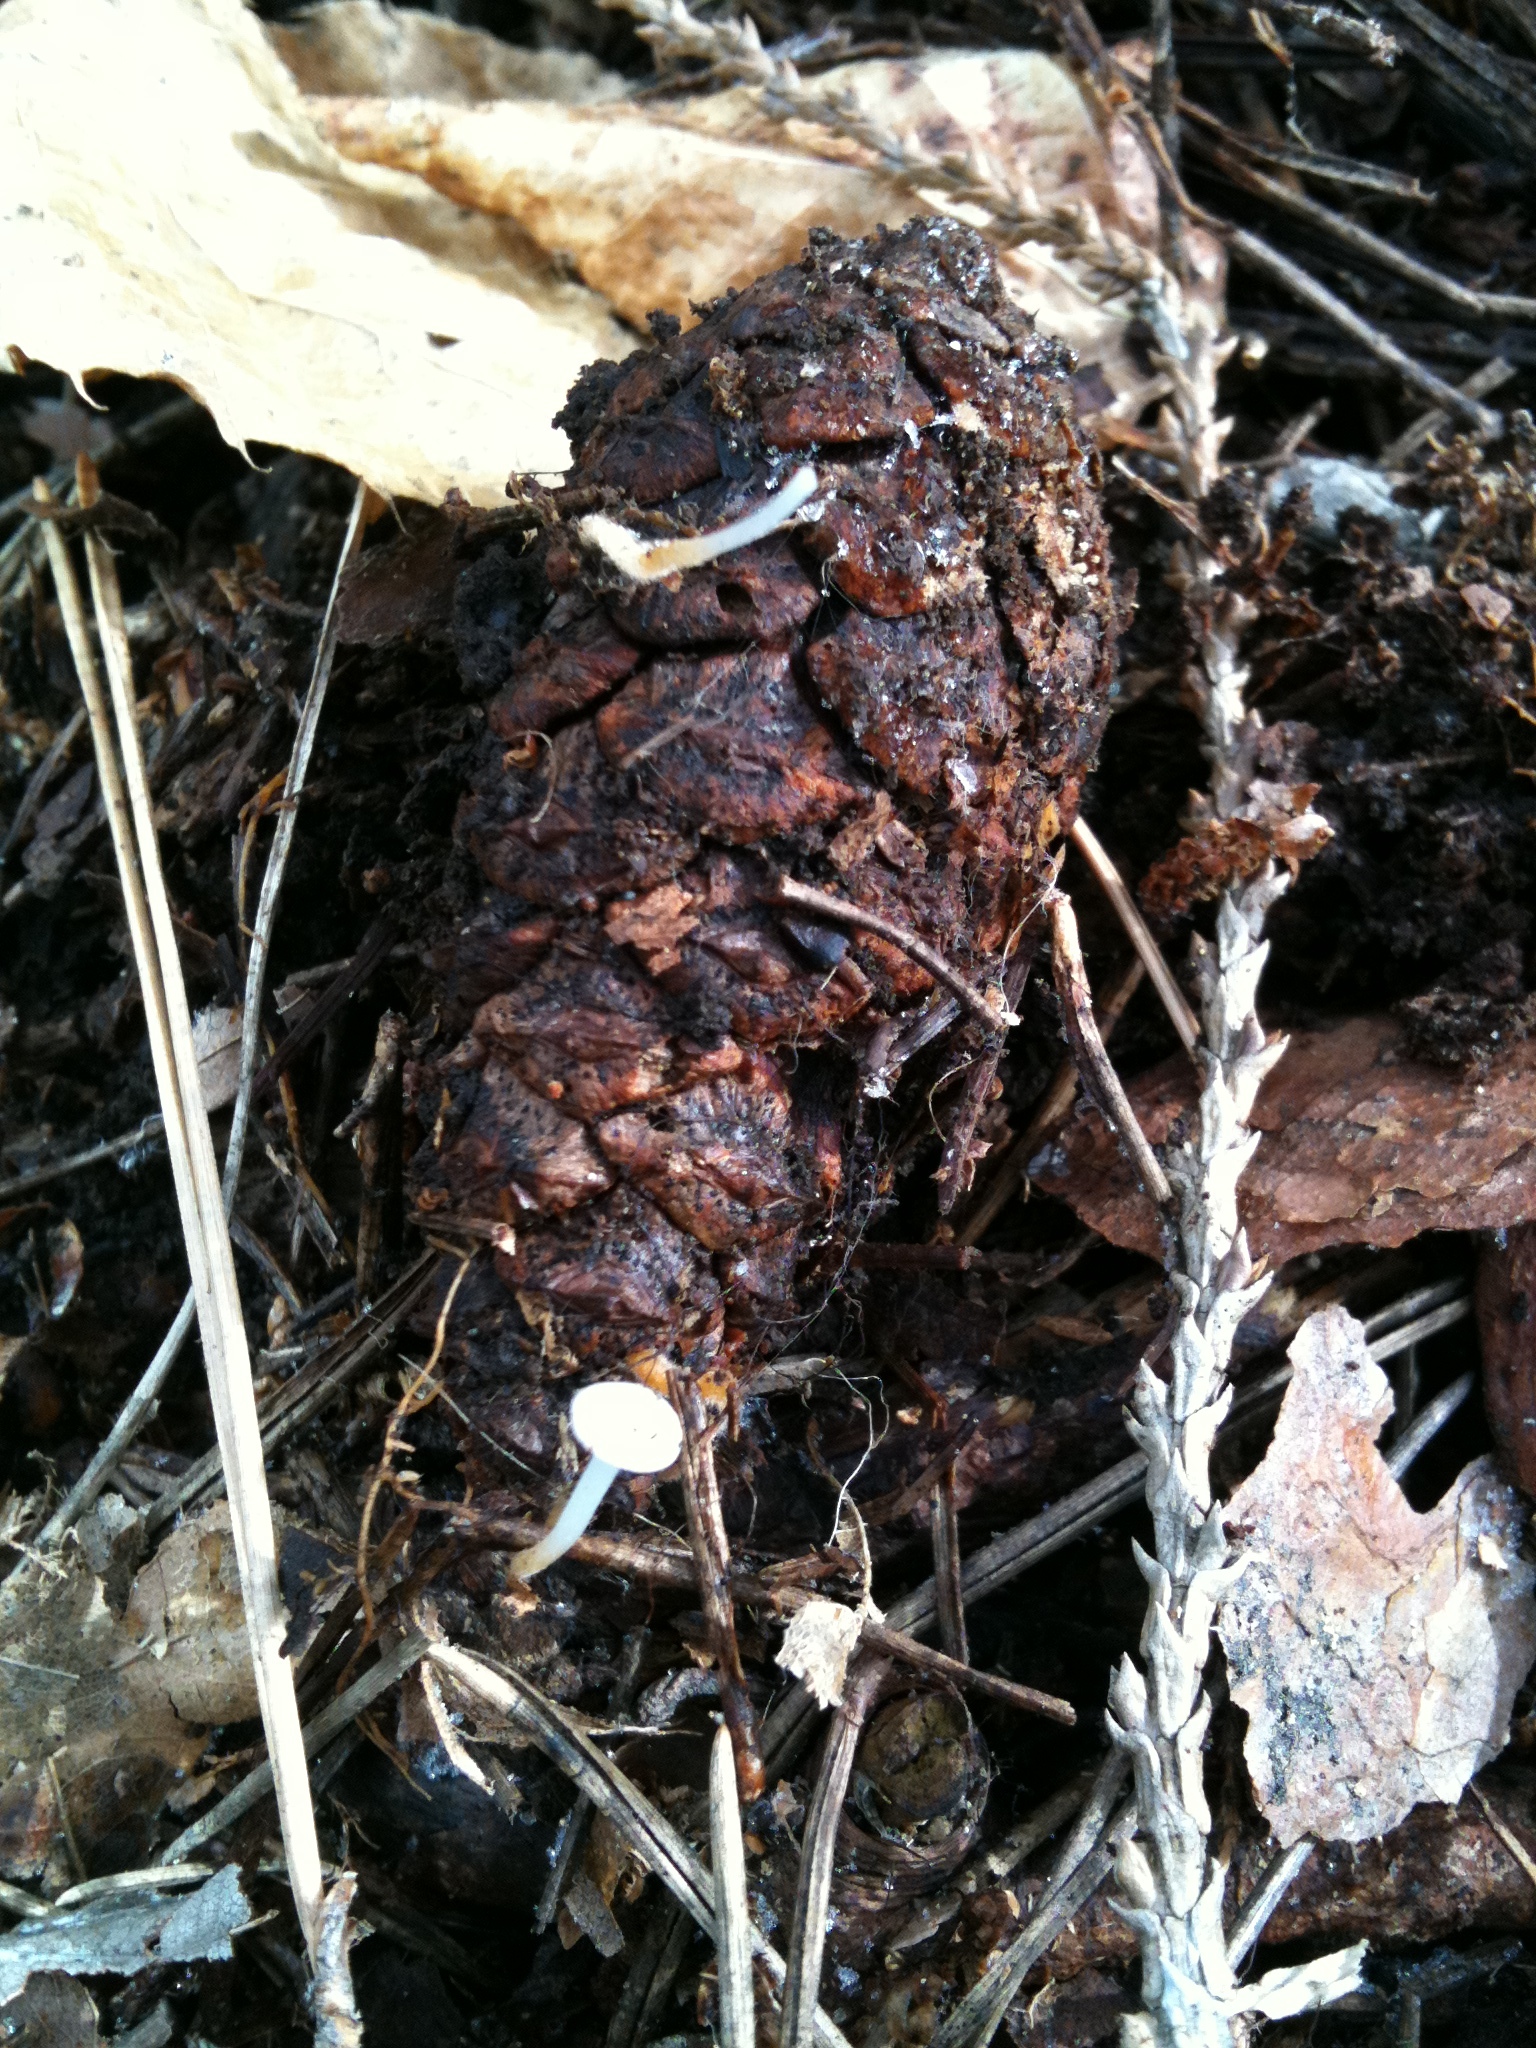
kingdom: Fungi
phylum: Basidiomycota
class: Agaricomycetes
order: Agaricales
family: Physalacriaceae
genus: Strobilurus
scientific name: Strobilurus stephanocystis
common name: Russian conecap
